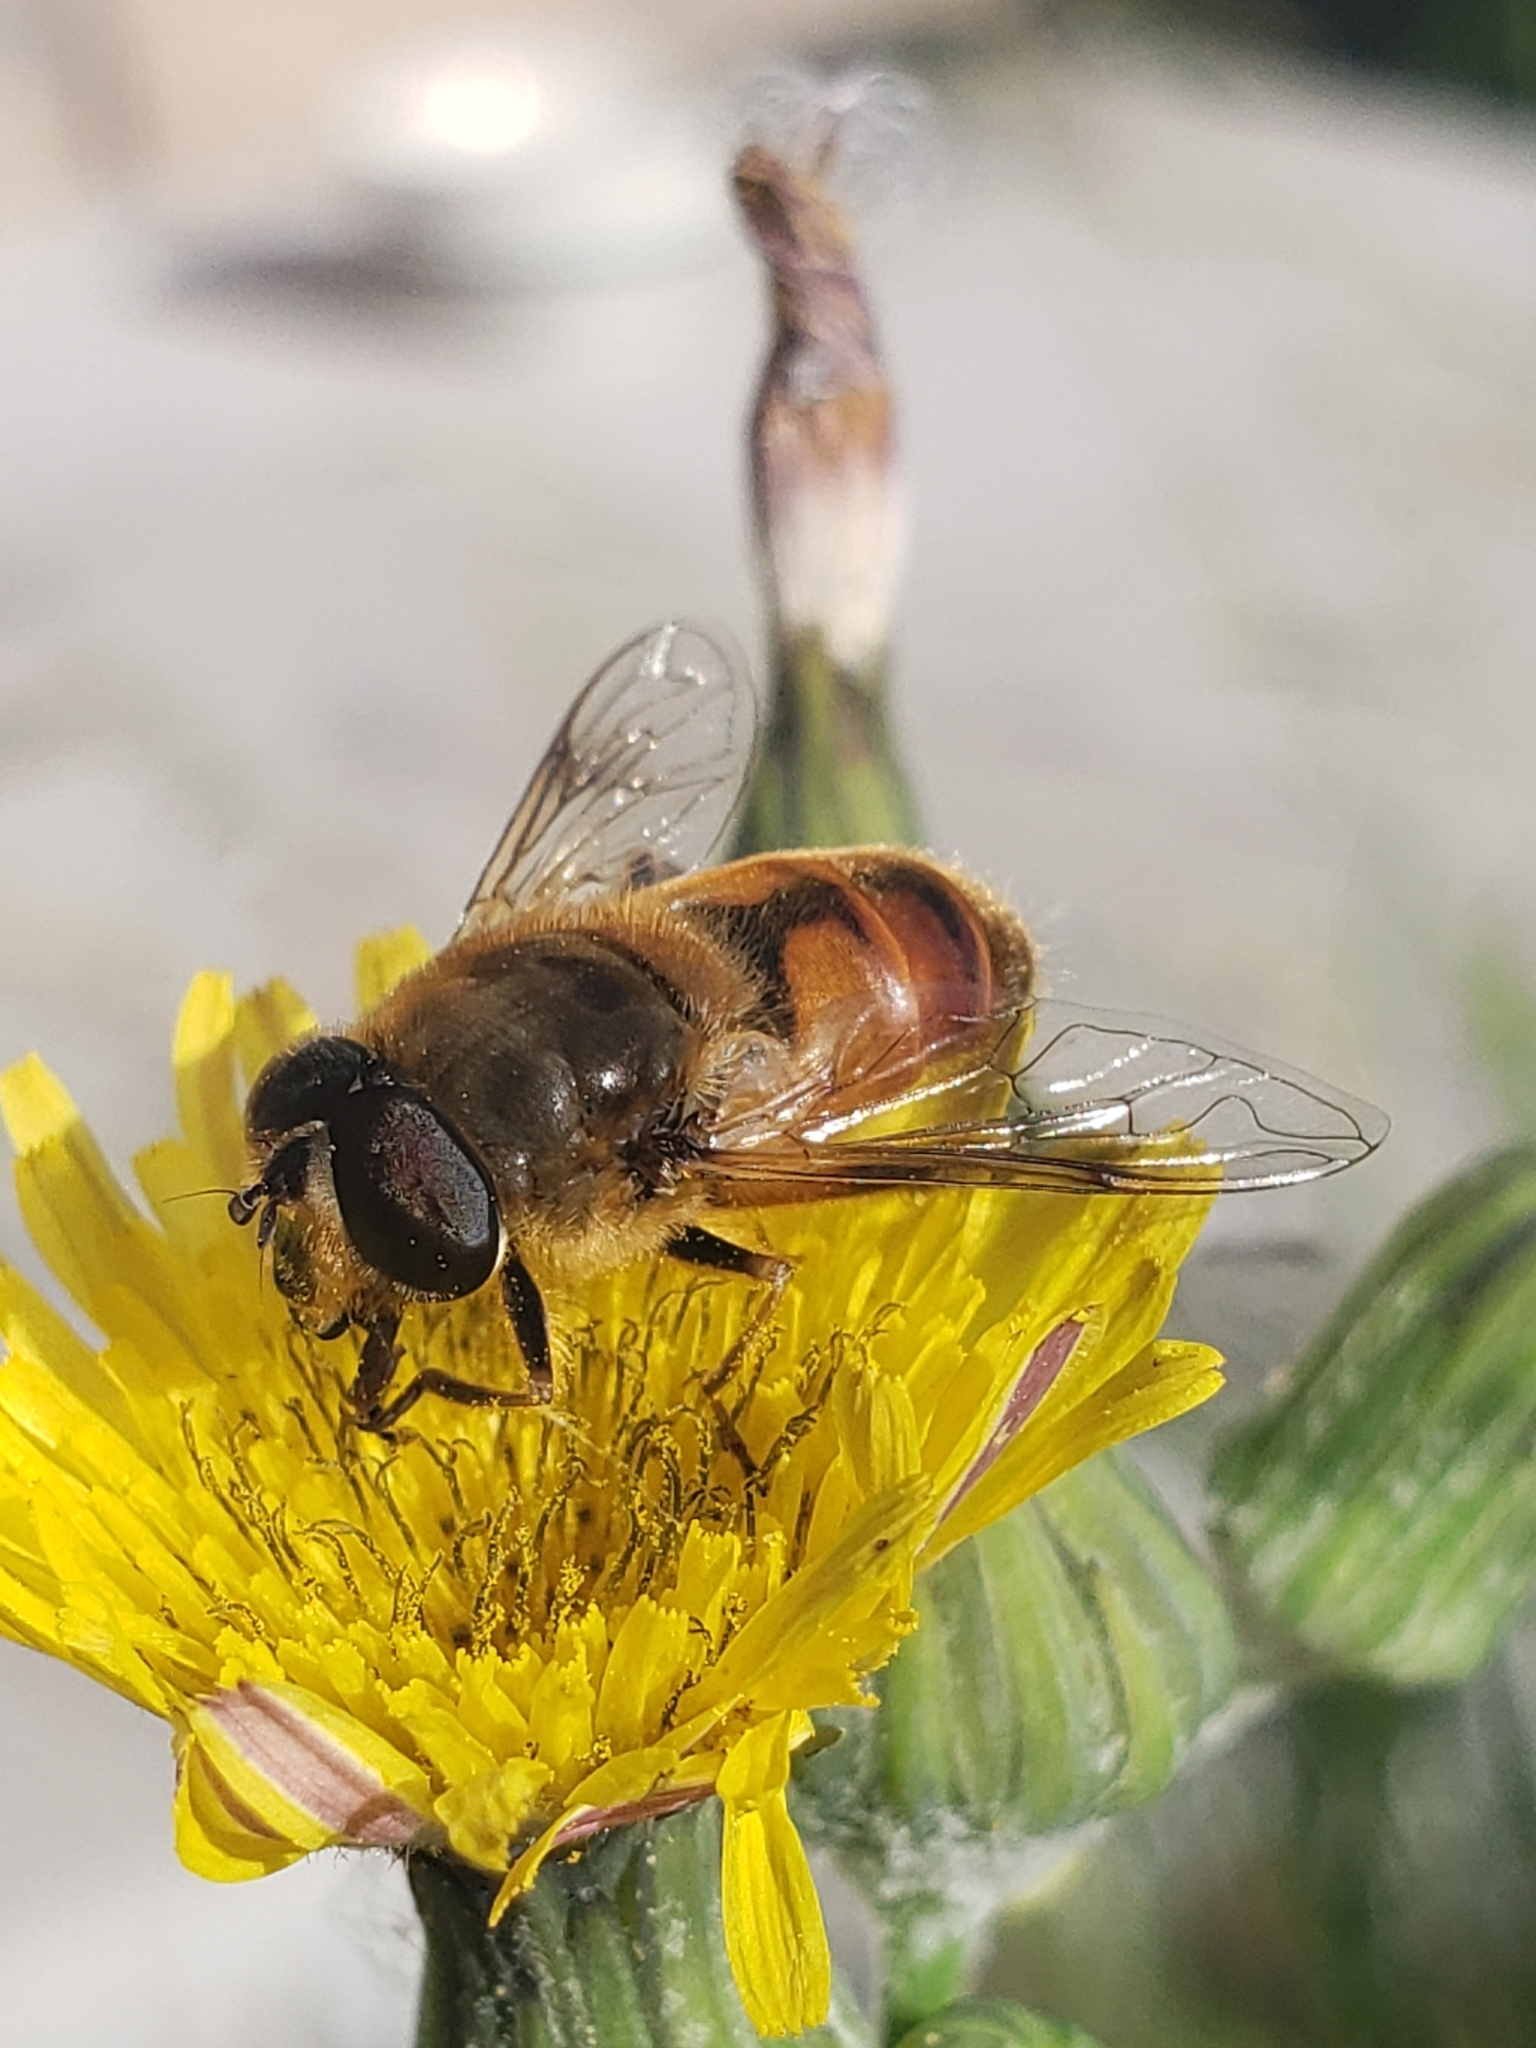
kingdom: Animalia
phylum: Arthropoda
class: Insecta
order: Diptera
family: Syrphidae
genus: Eristalis
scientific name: Eristalis tenax
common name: Drone fly
